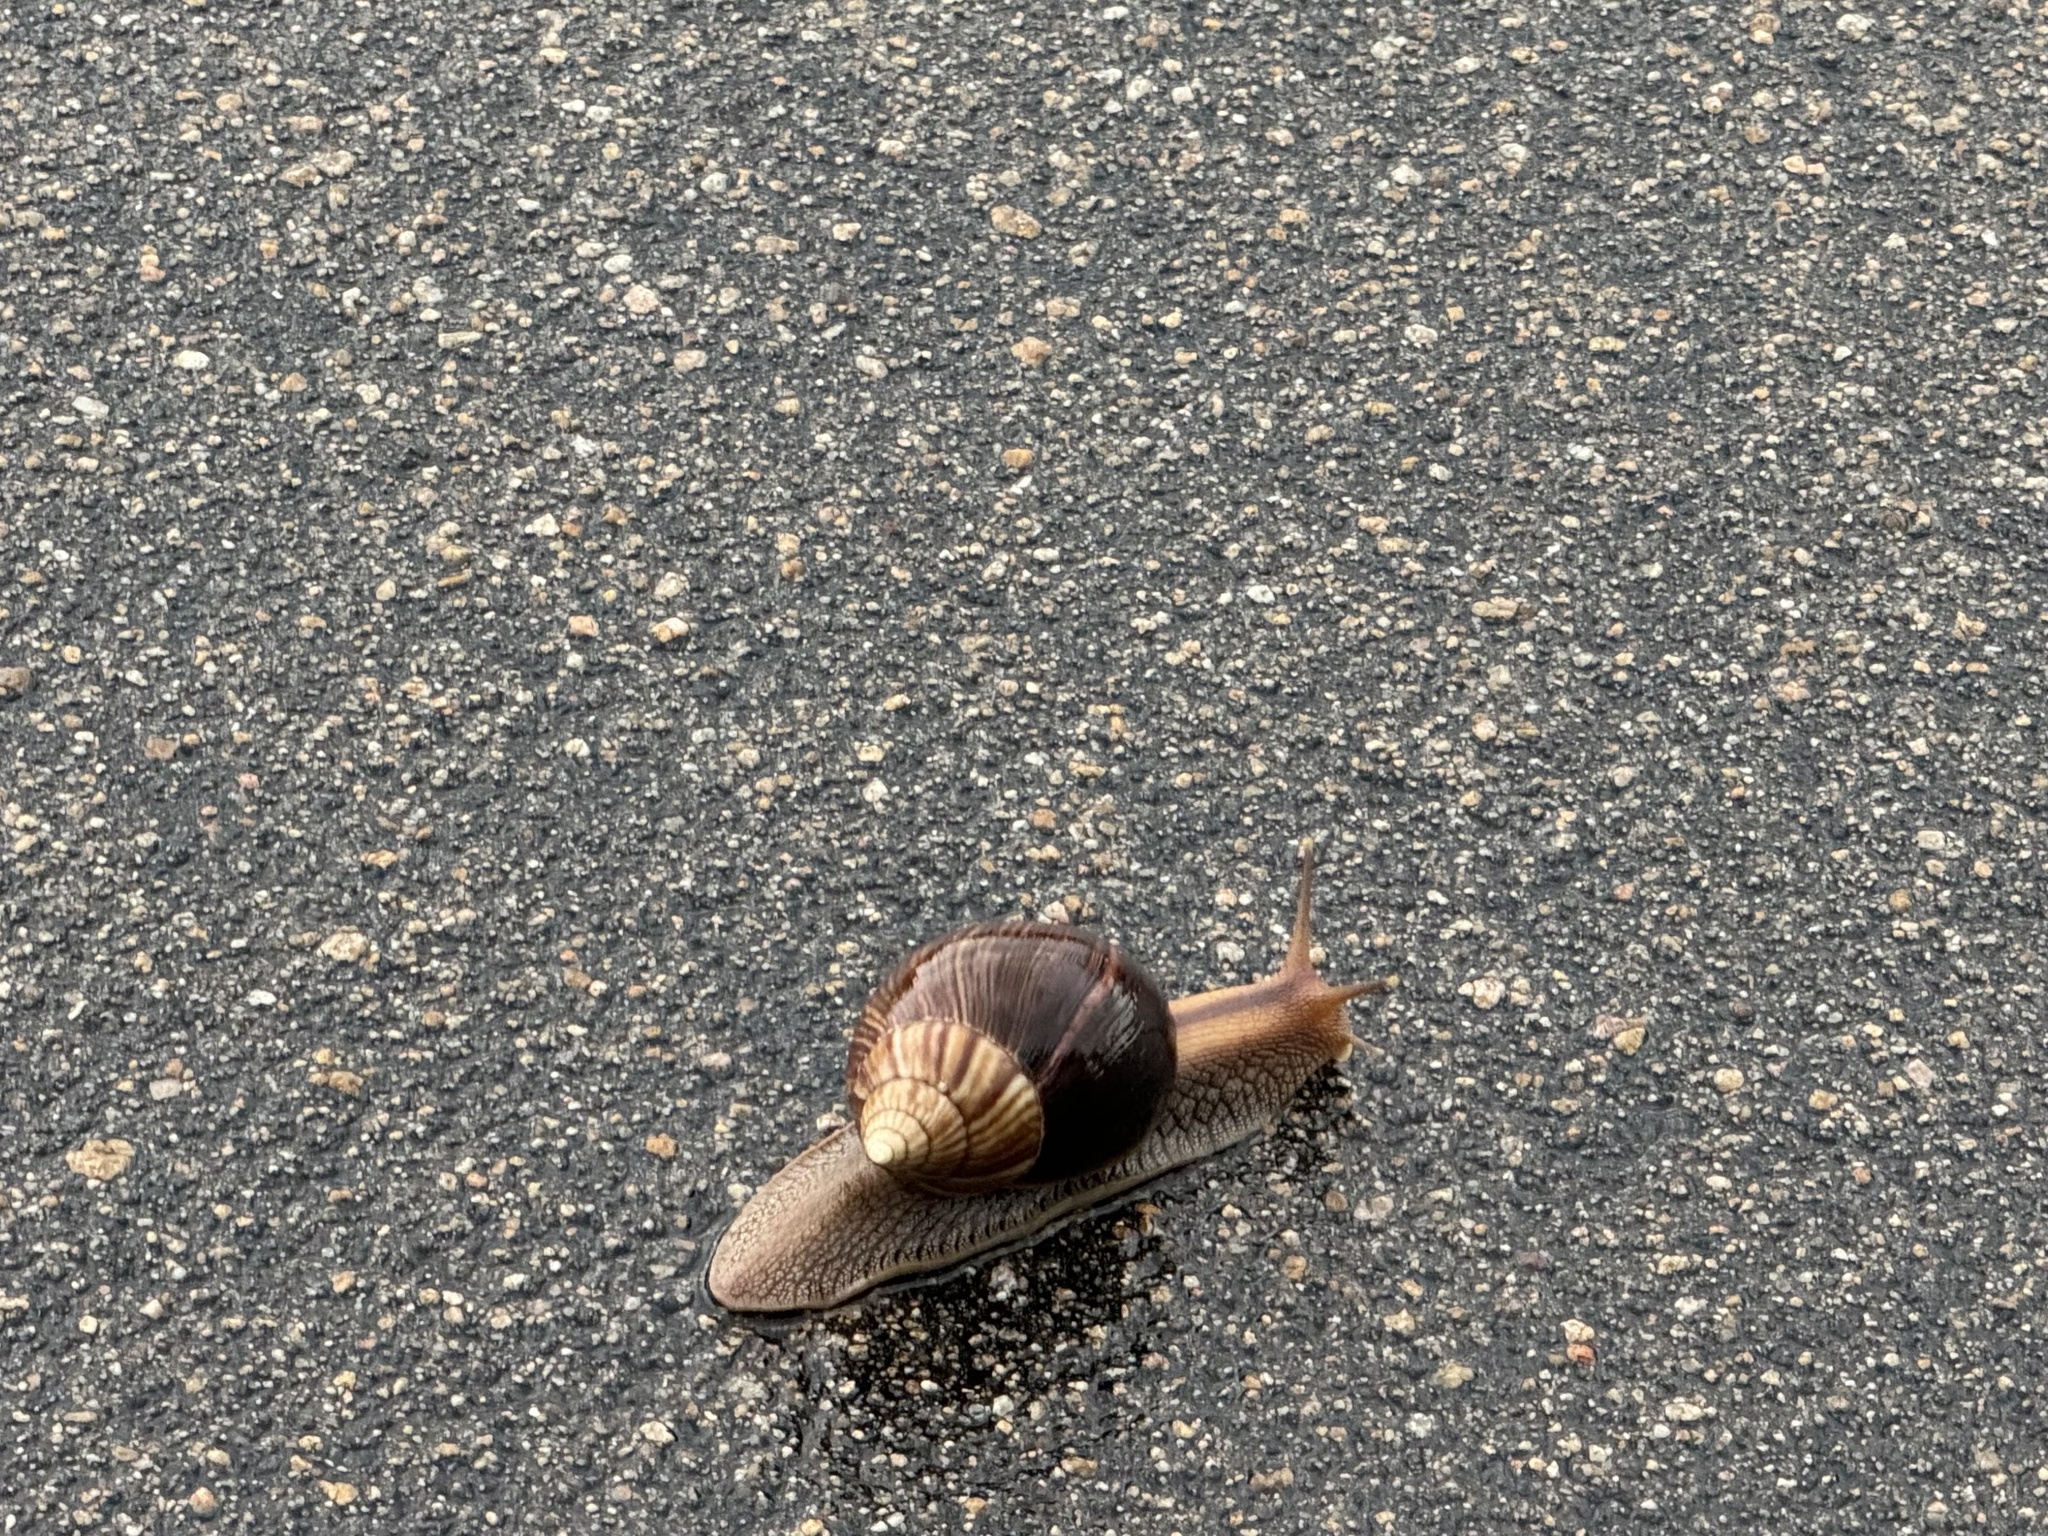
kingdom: Animalia
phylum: Mollusca
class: Gastropoda
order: Stylommatophora
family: Achatinidae
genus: Lissachatina
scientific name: Lissachatina immaculata
